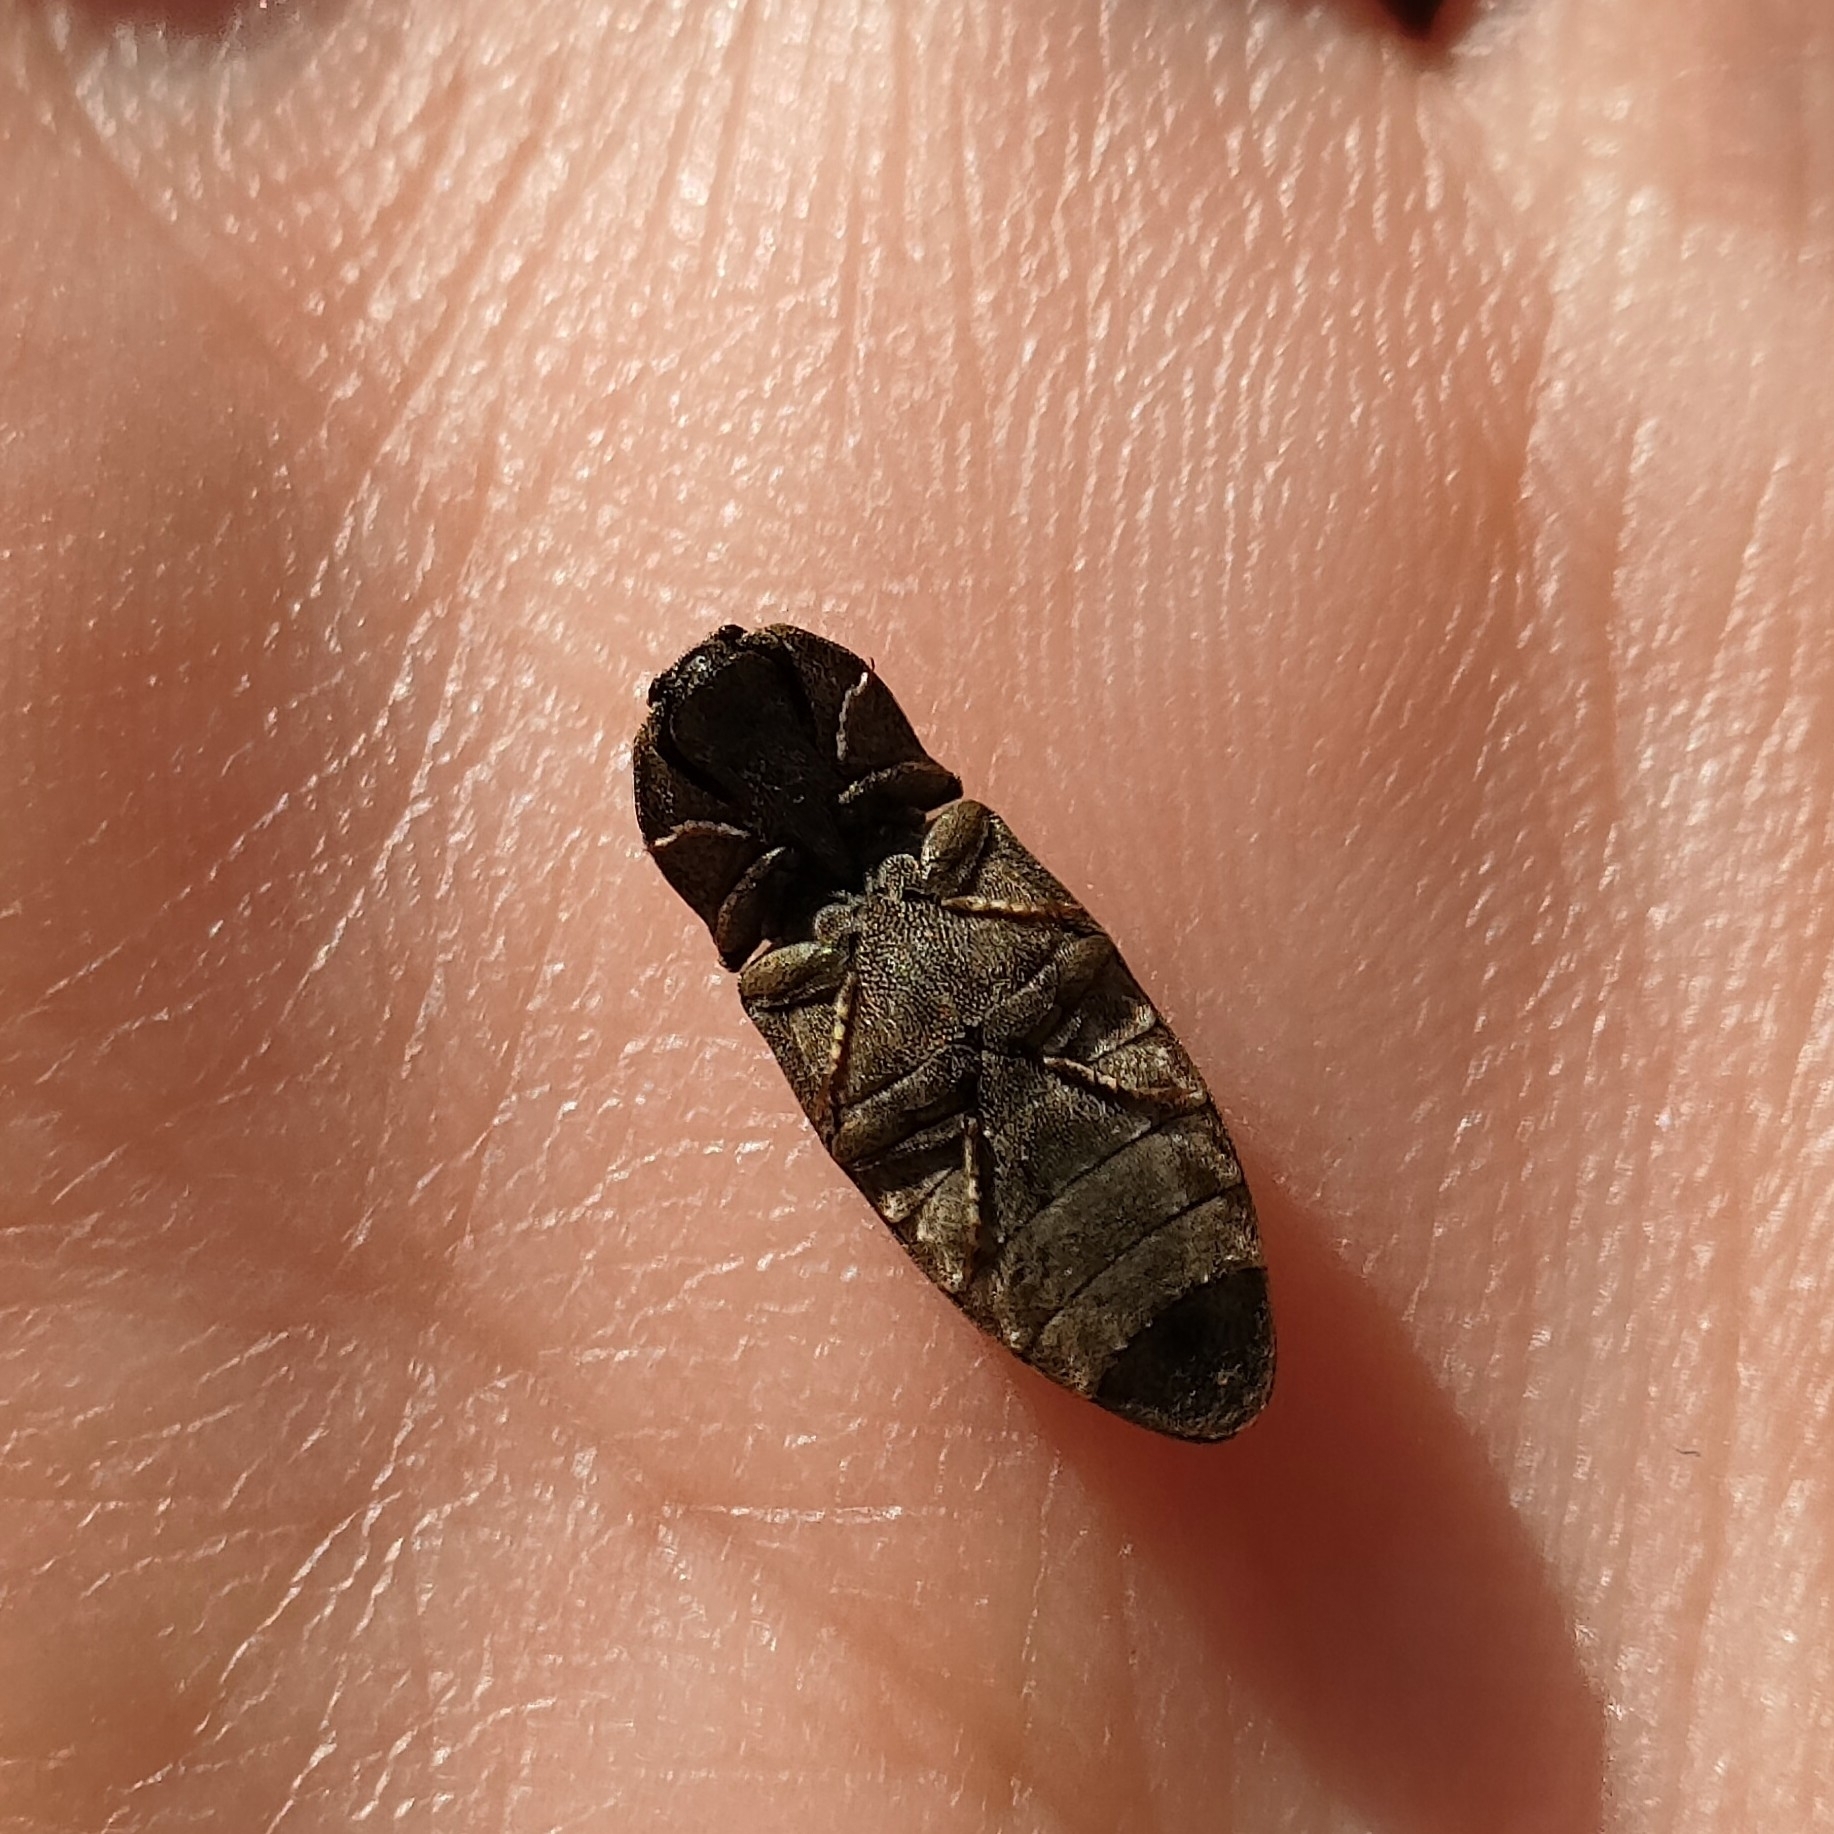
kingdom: Animalia
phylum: Arthropoda
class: Insecta
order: Coleoptera
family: Elateridae
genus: Agrypnus
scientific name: Agrypnus murinus
